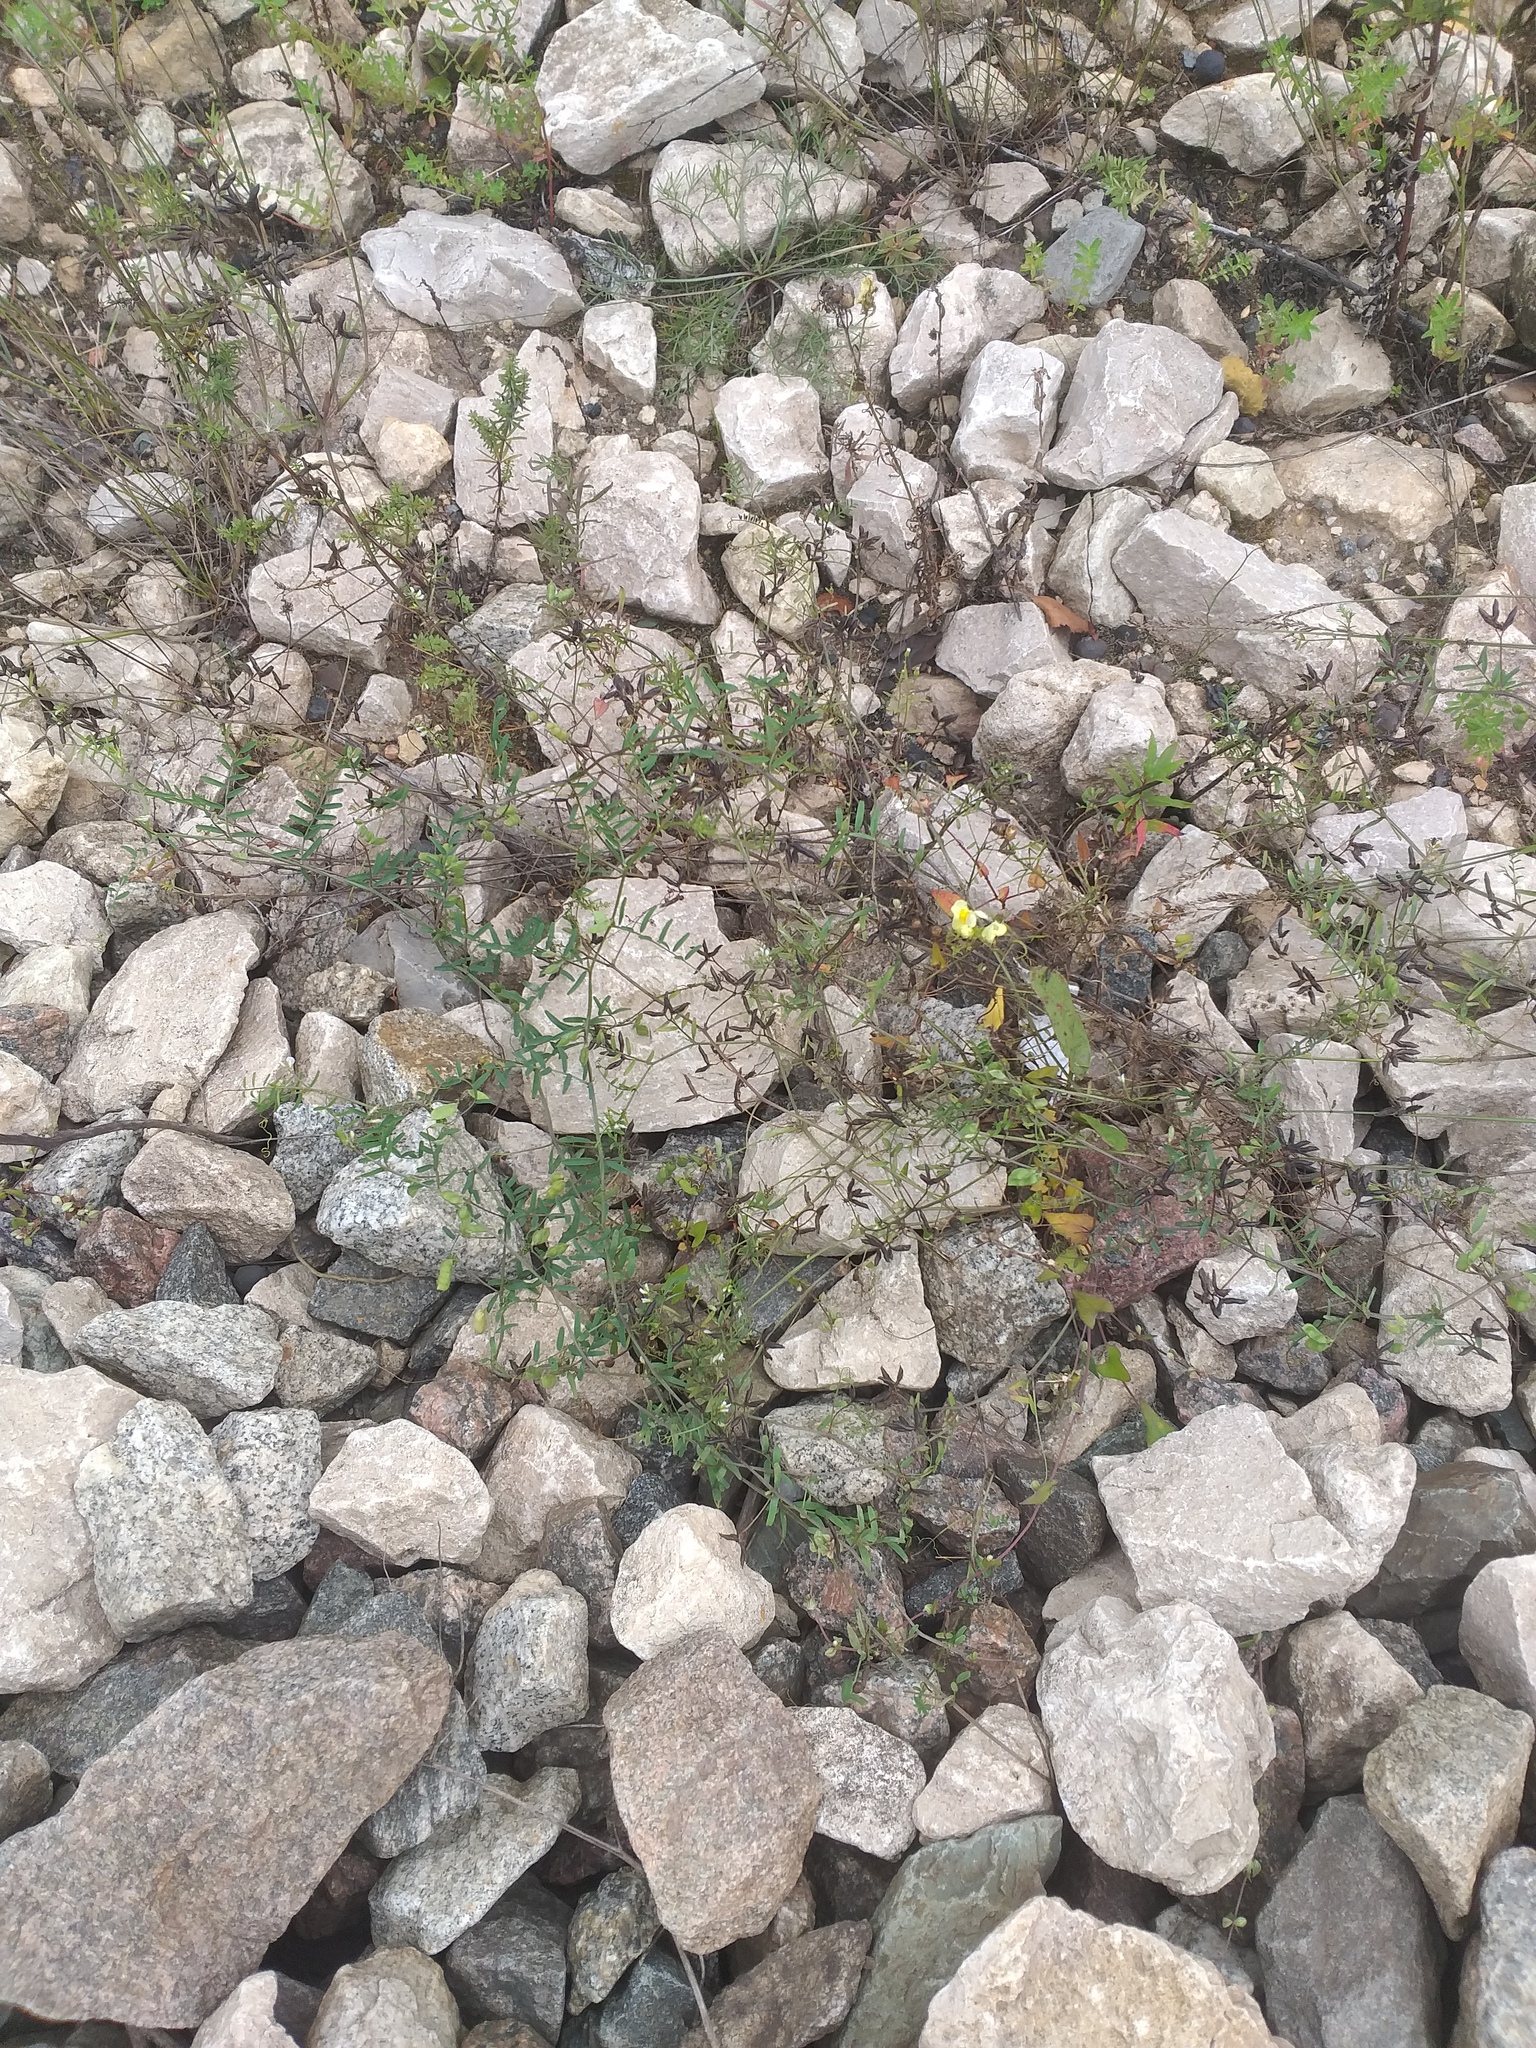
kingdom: Plantae
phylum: Tracheophyta
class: Magnoliopsida
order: Fabales
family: Fabaceae
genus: Vicia
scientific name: Vicia hirsuta
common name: Tiny vetch
